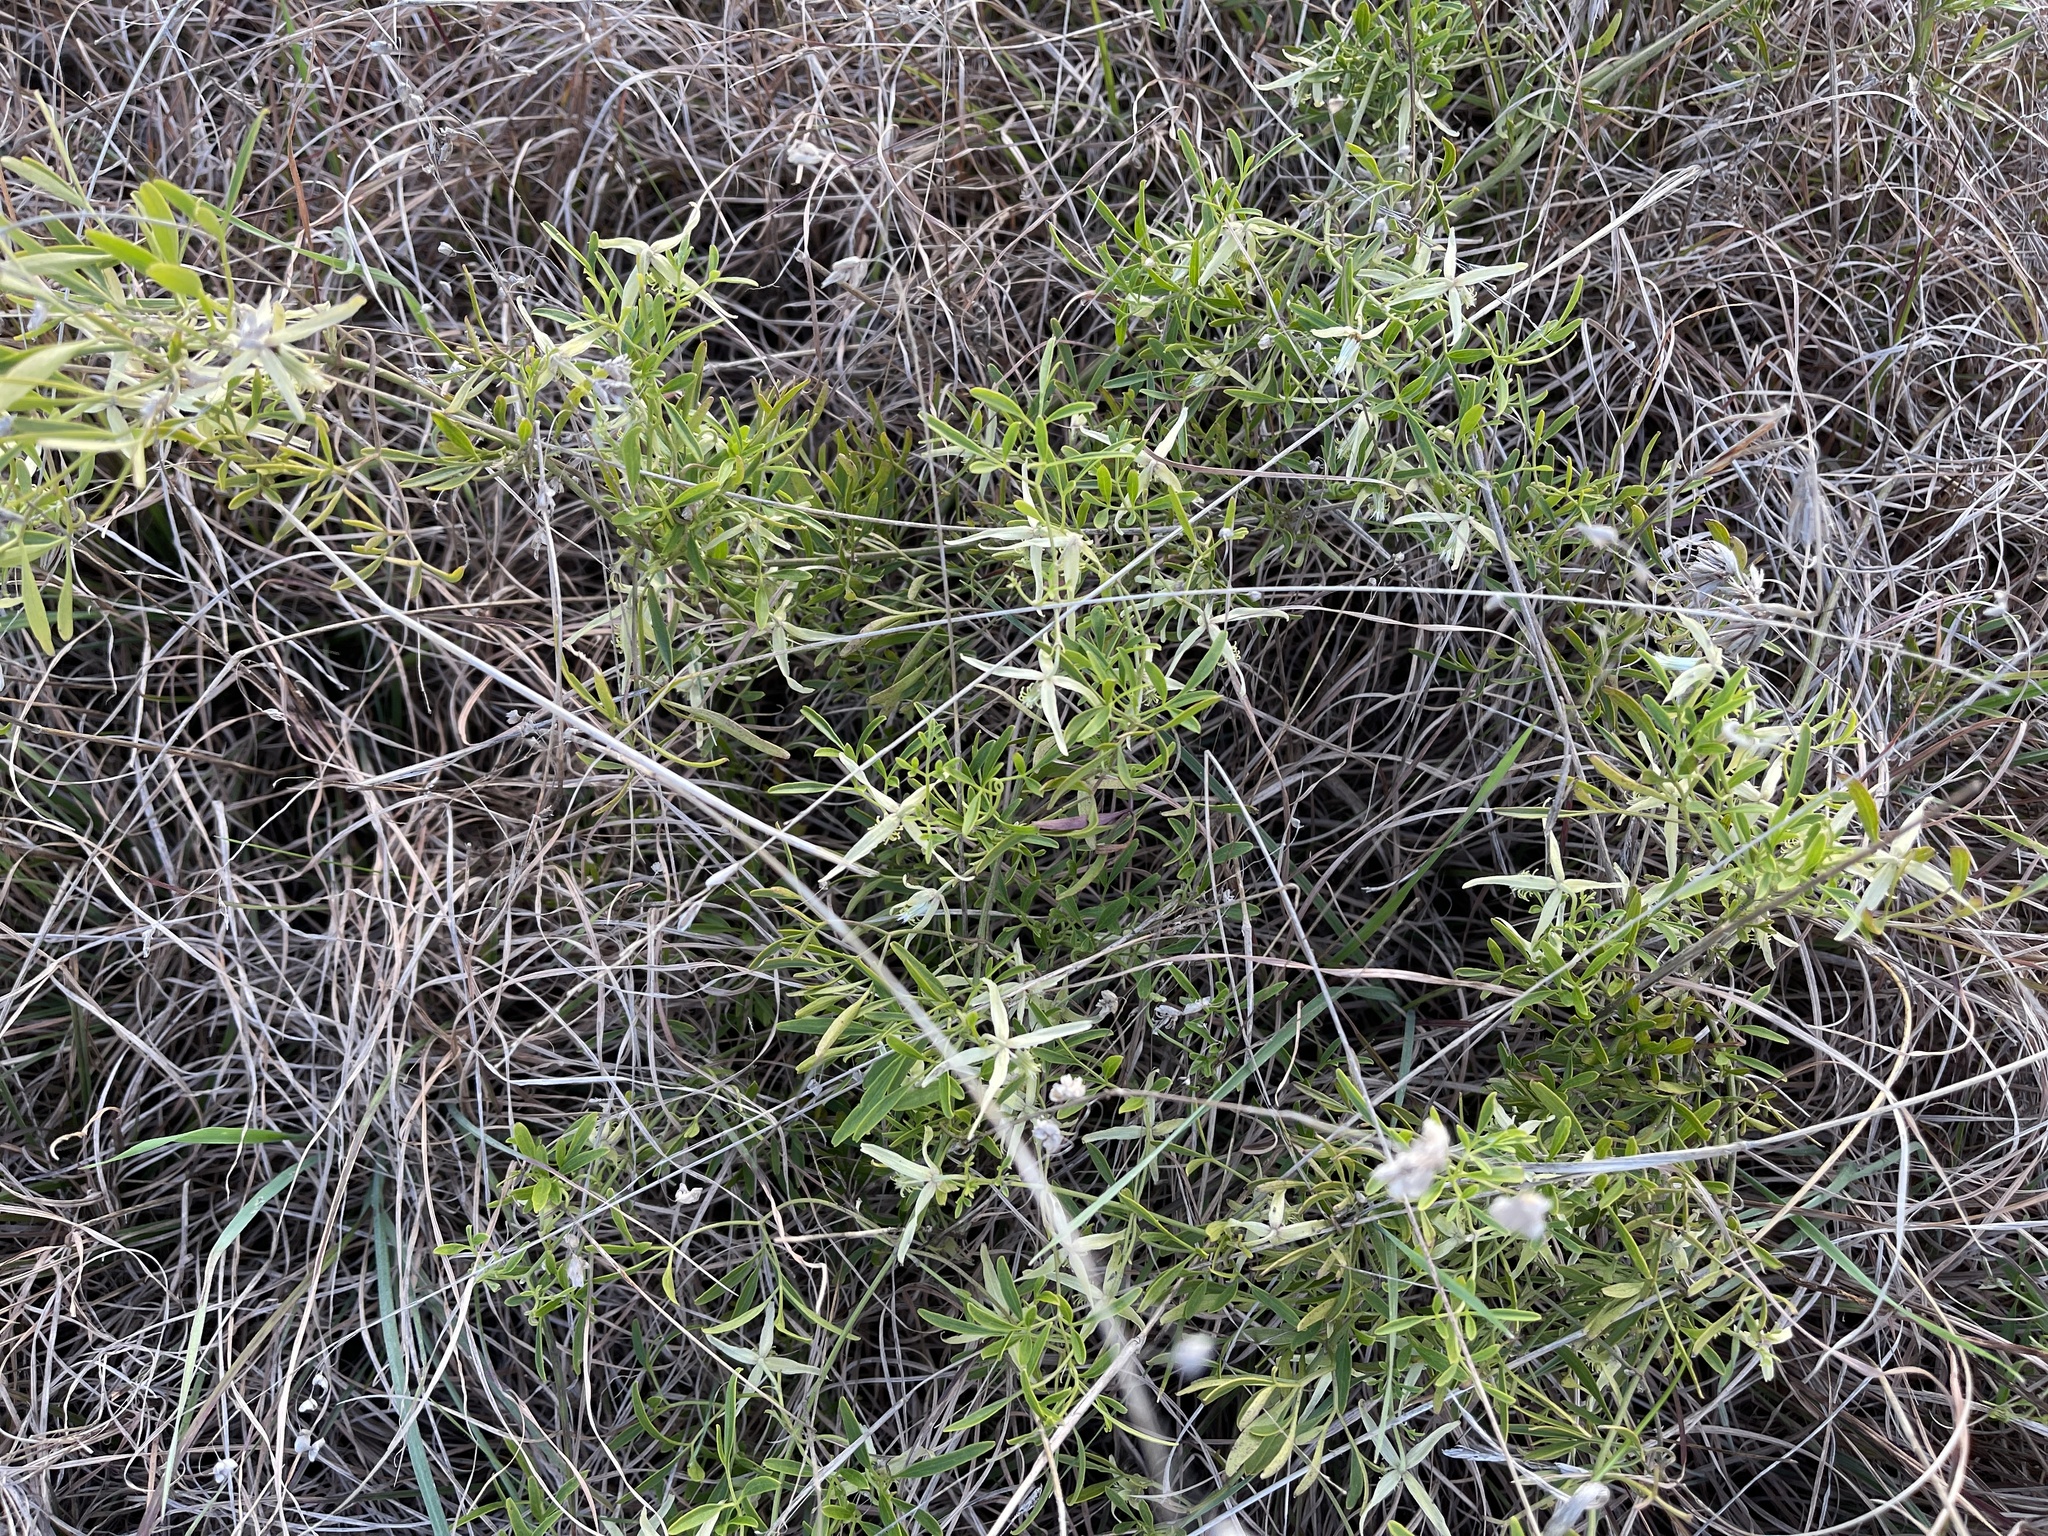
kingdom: Plantae
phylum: Tracheophyta
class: Magnoliopsida
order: Ranunculales
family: Ranunculaceae
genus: Clematis
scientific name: Clematis microphylla
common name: Headachevine
